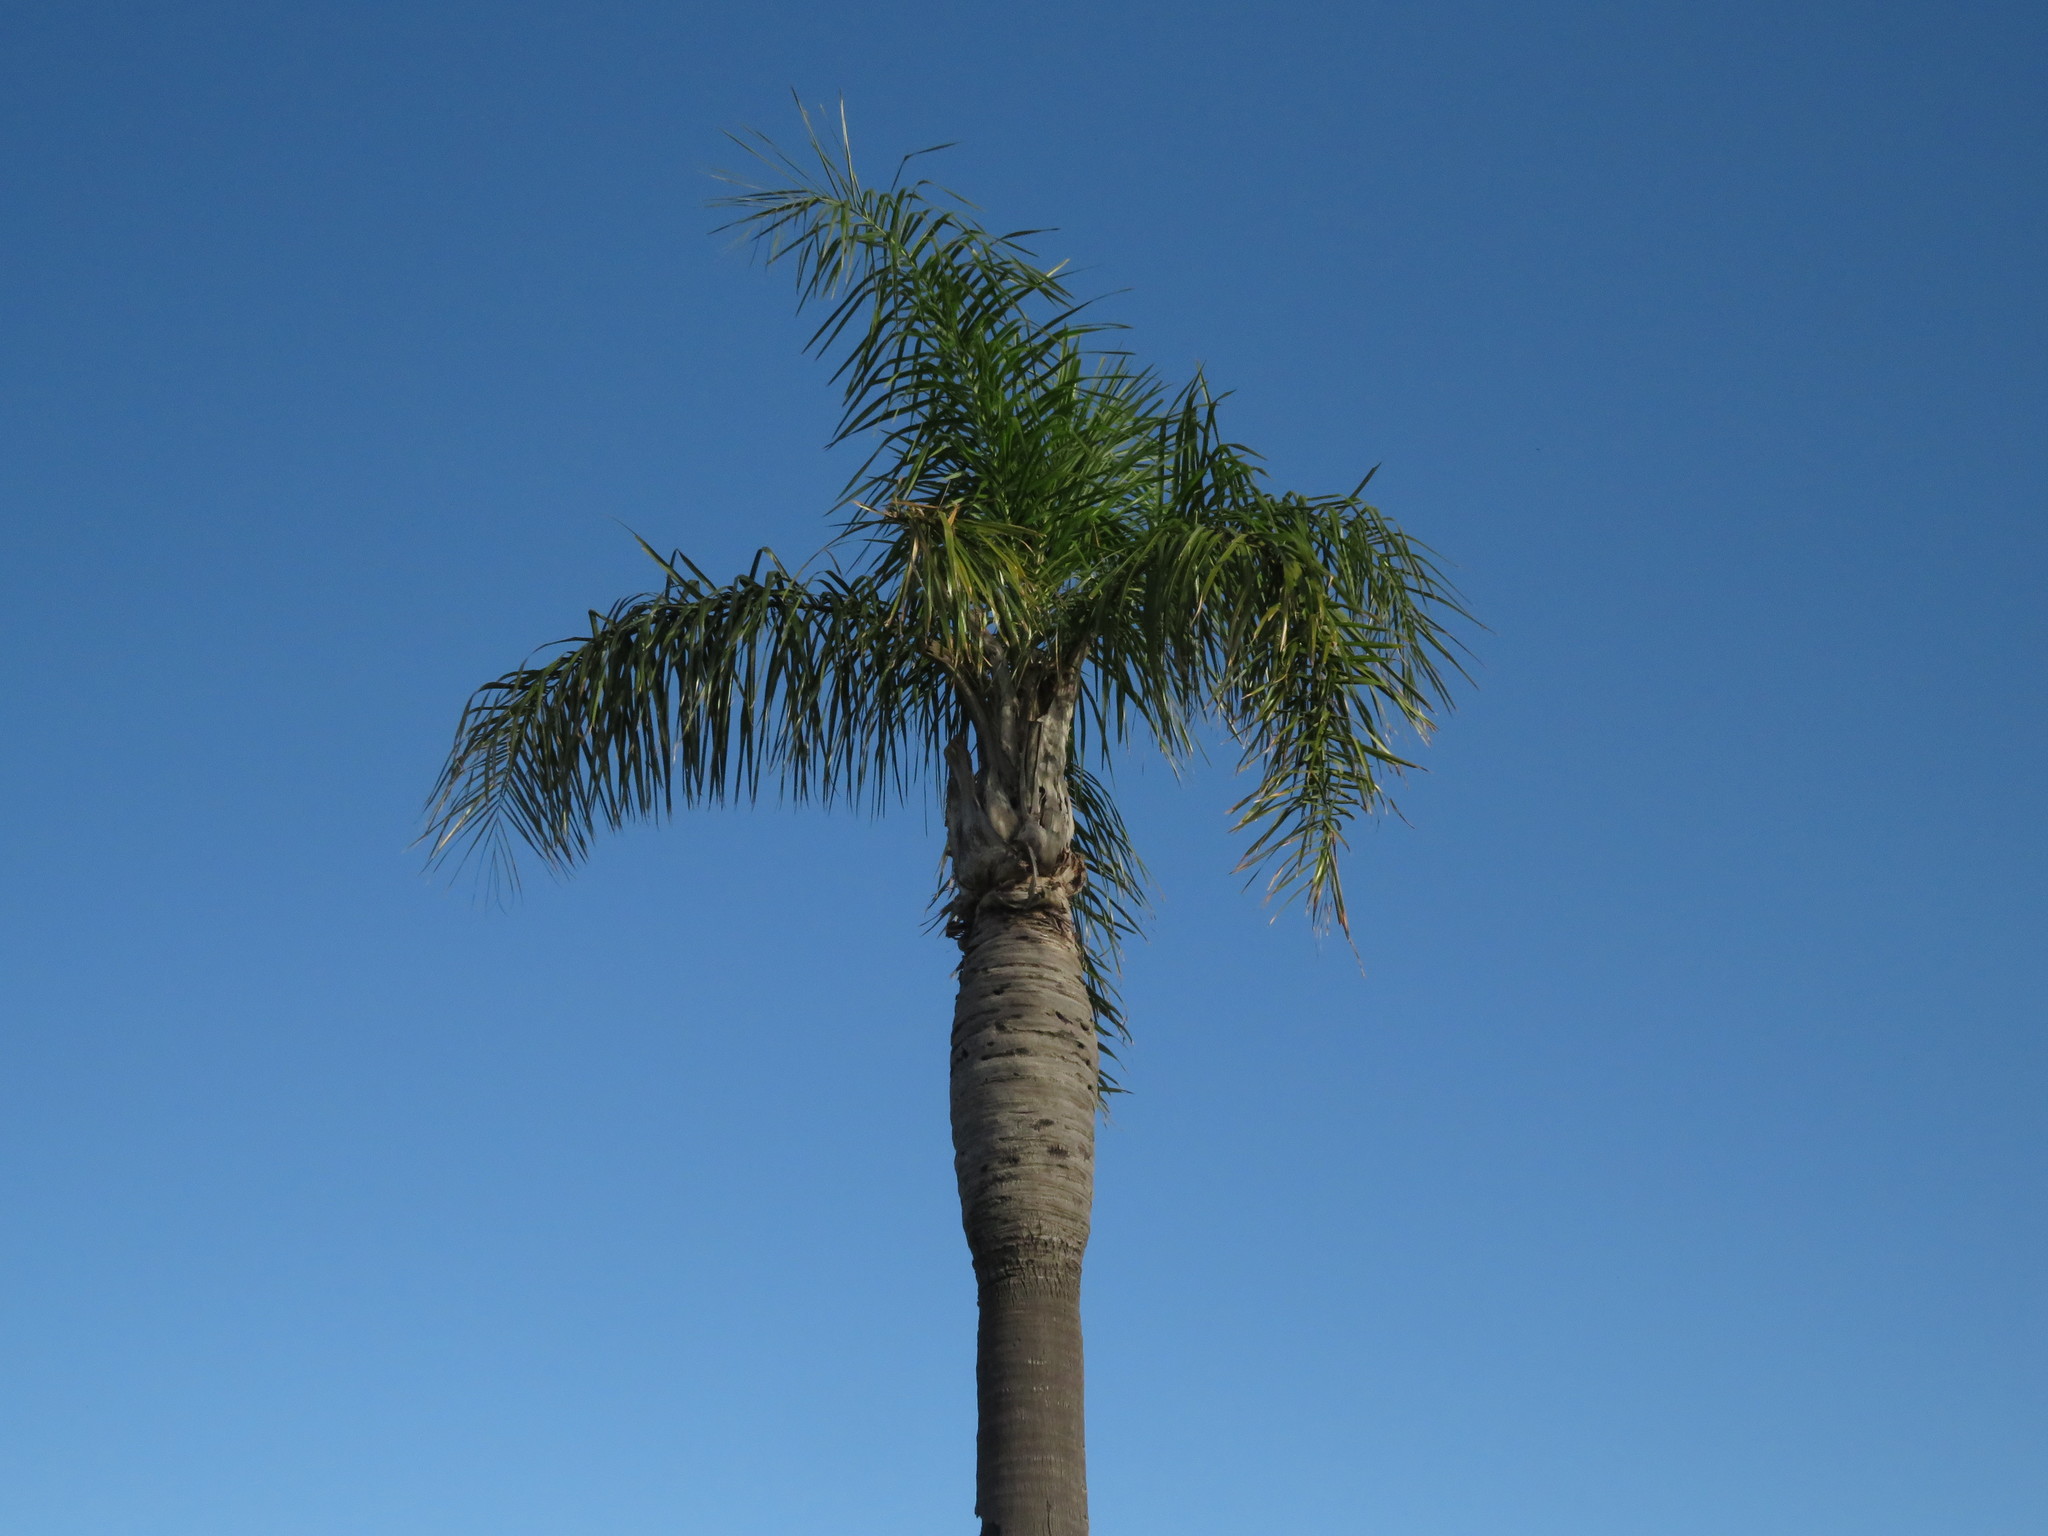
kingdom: Plantae
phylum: Tracheophyta
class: Liliopsida
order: Arecales
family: Arecaceae
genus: Syagrus
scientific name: Syagrus romanzoffiana
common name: Queen palm
